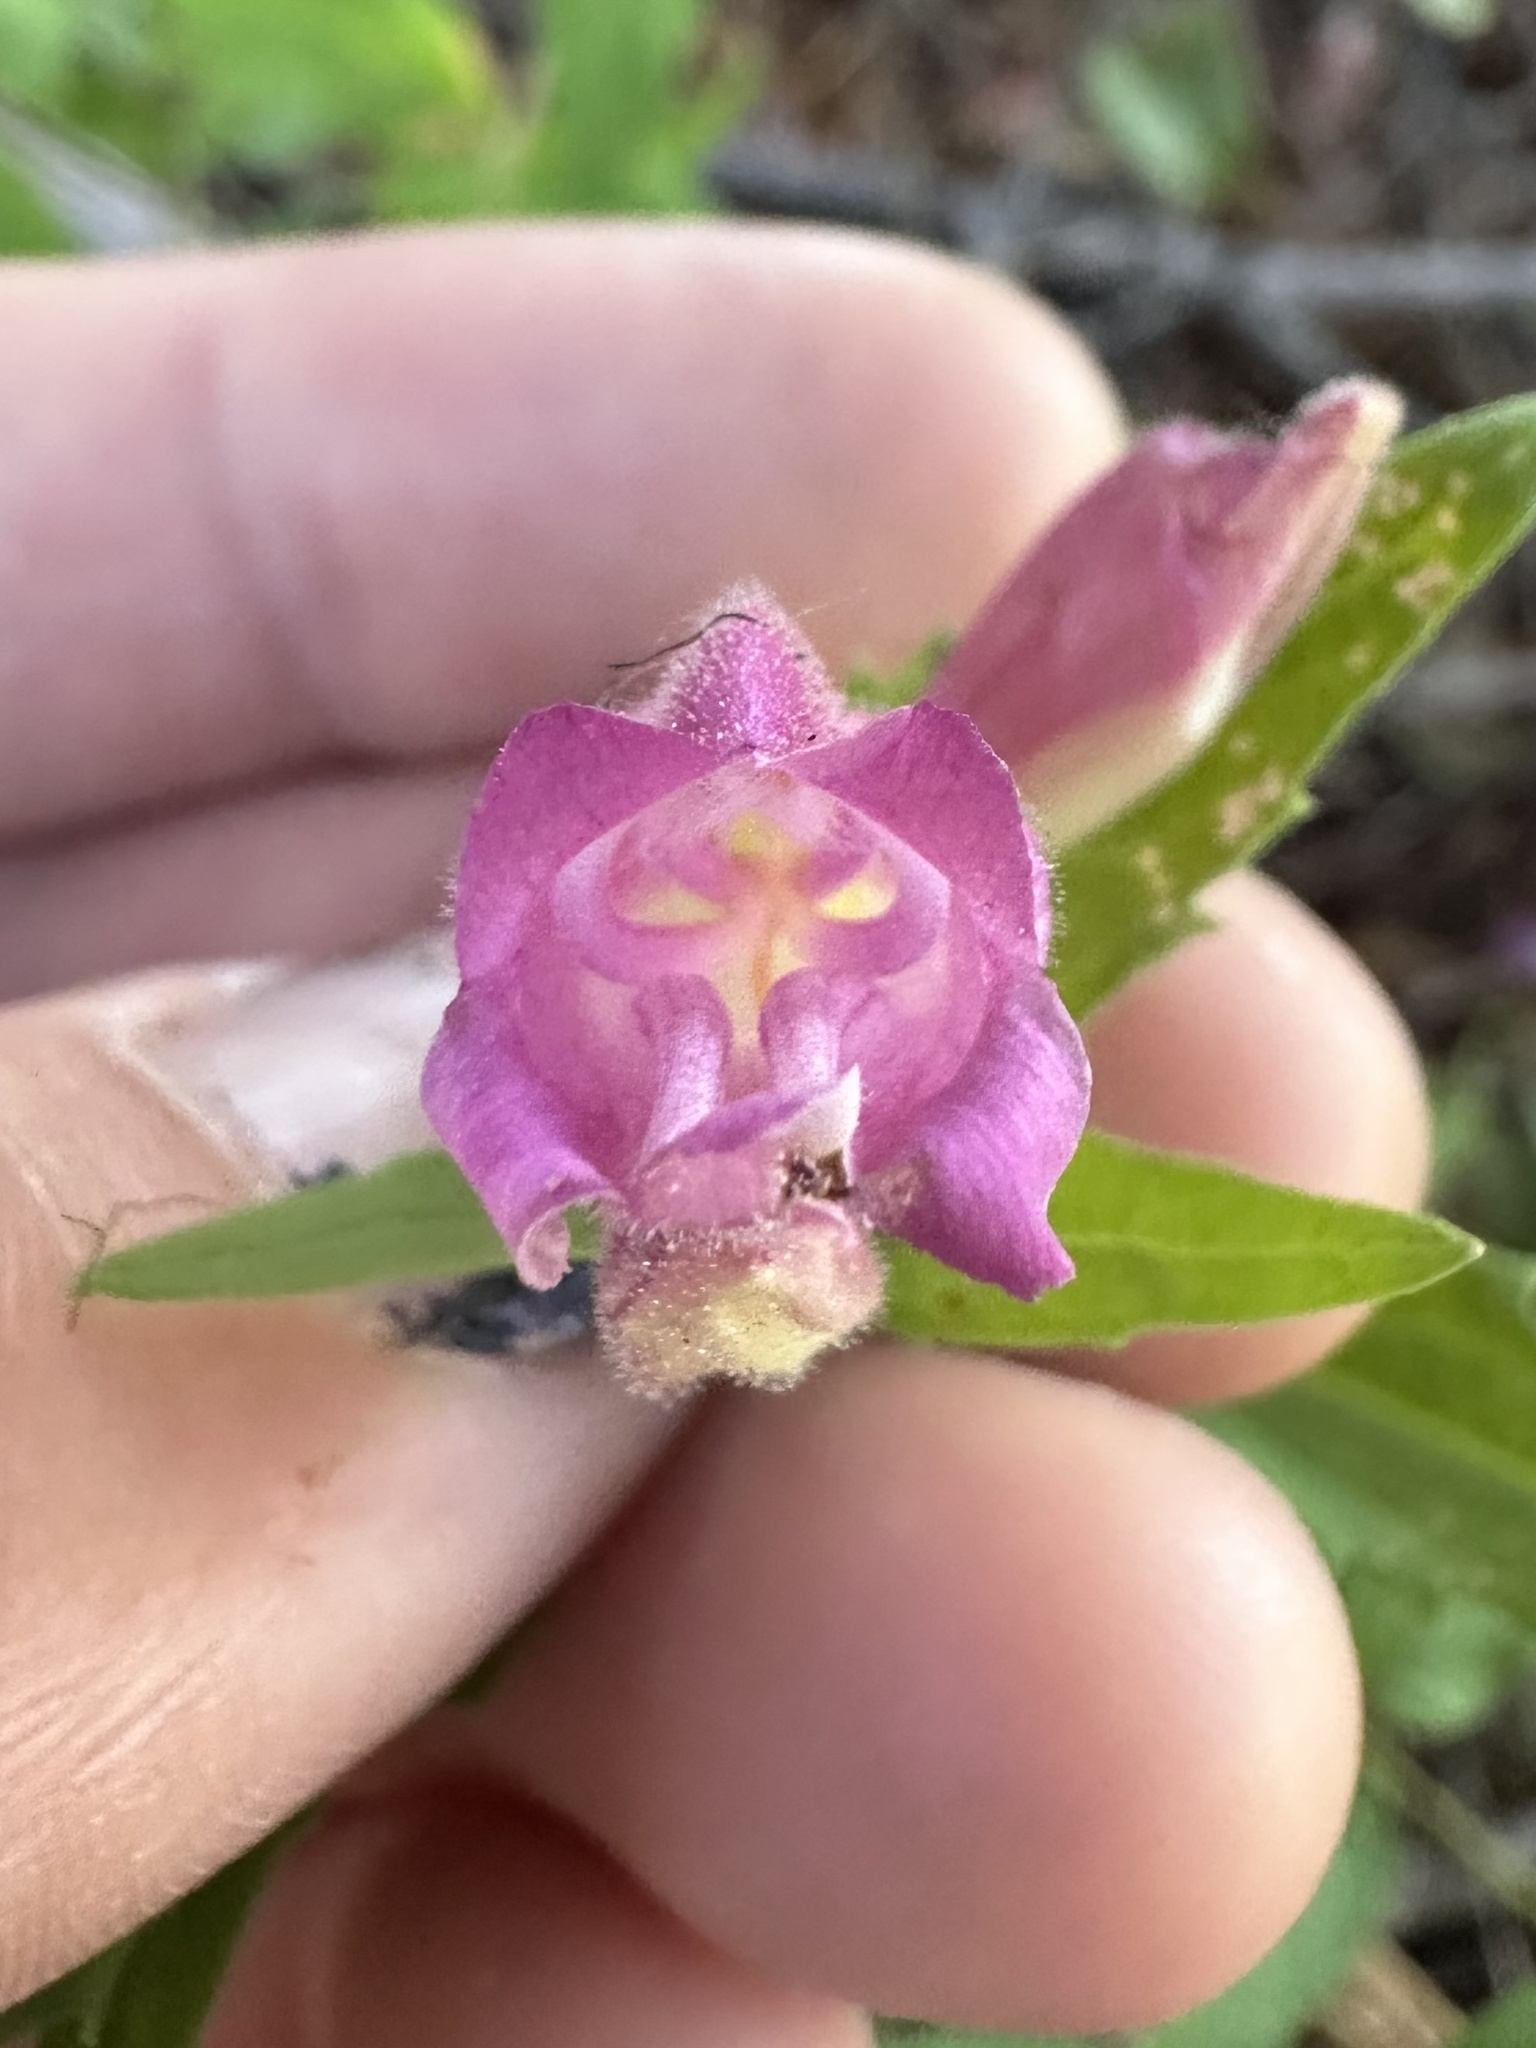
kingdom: Plantae
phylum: Tracheophyta
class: Magnoliopsida
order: Lamiales
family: Plantaginaceae
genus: Nothochelone
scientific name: Nothochelone nemorosa
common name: Woodland beardtongue
